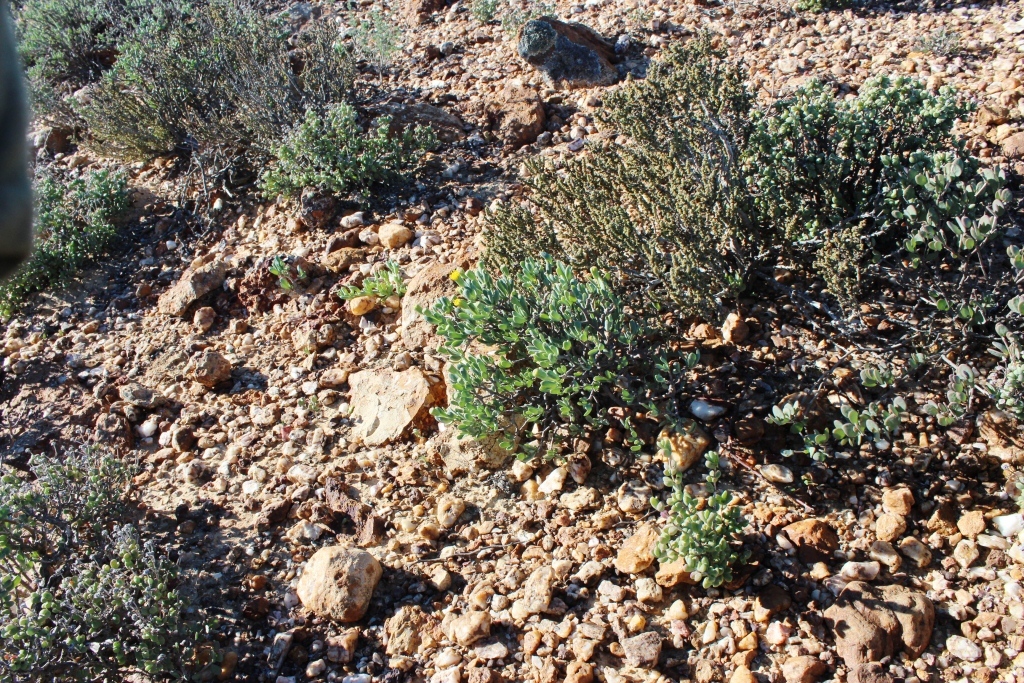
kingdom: Plantae
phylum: Tracheophyta
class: Magnoliopsida
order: Asterales
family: Asteraceae
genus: Othonna
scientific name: Othonna arbuscula
